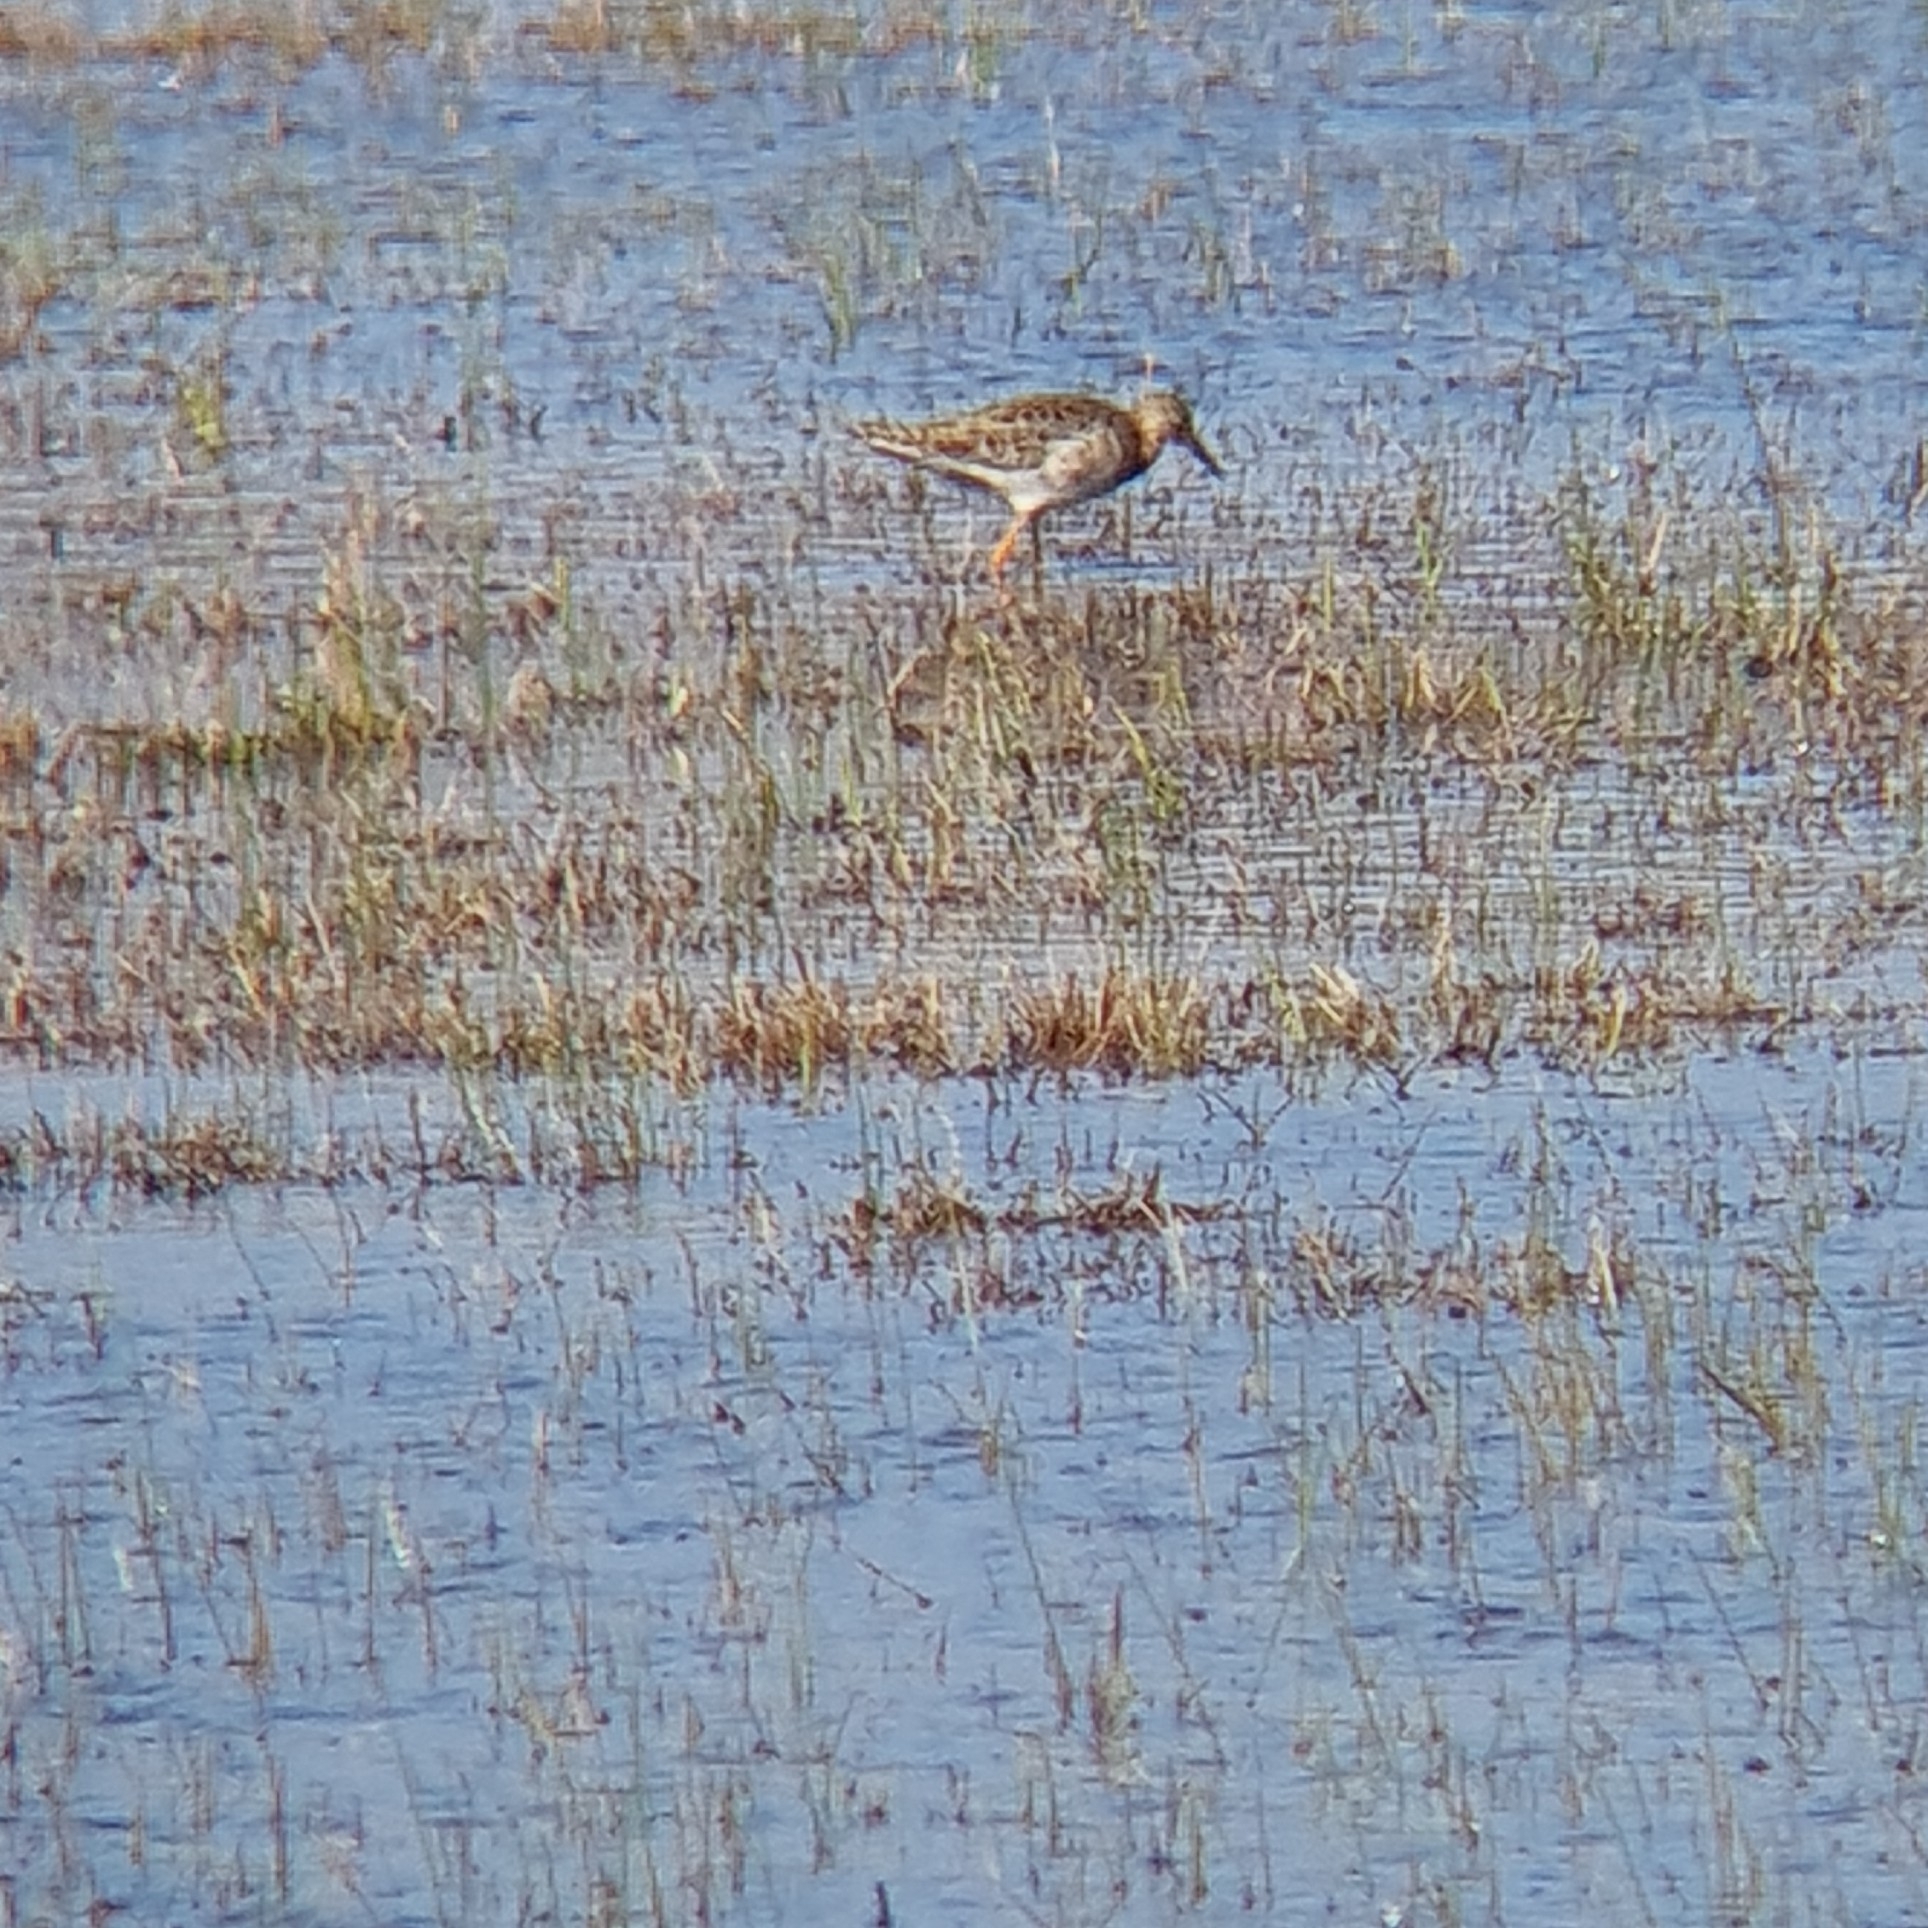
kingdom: Animalia
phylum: Chordata
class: Aves
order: Charadriiformes
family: Scolopacidae
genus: Calidris
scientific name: Calidris pugnax
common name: Ruff
